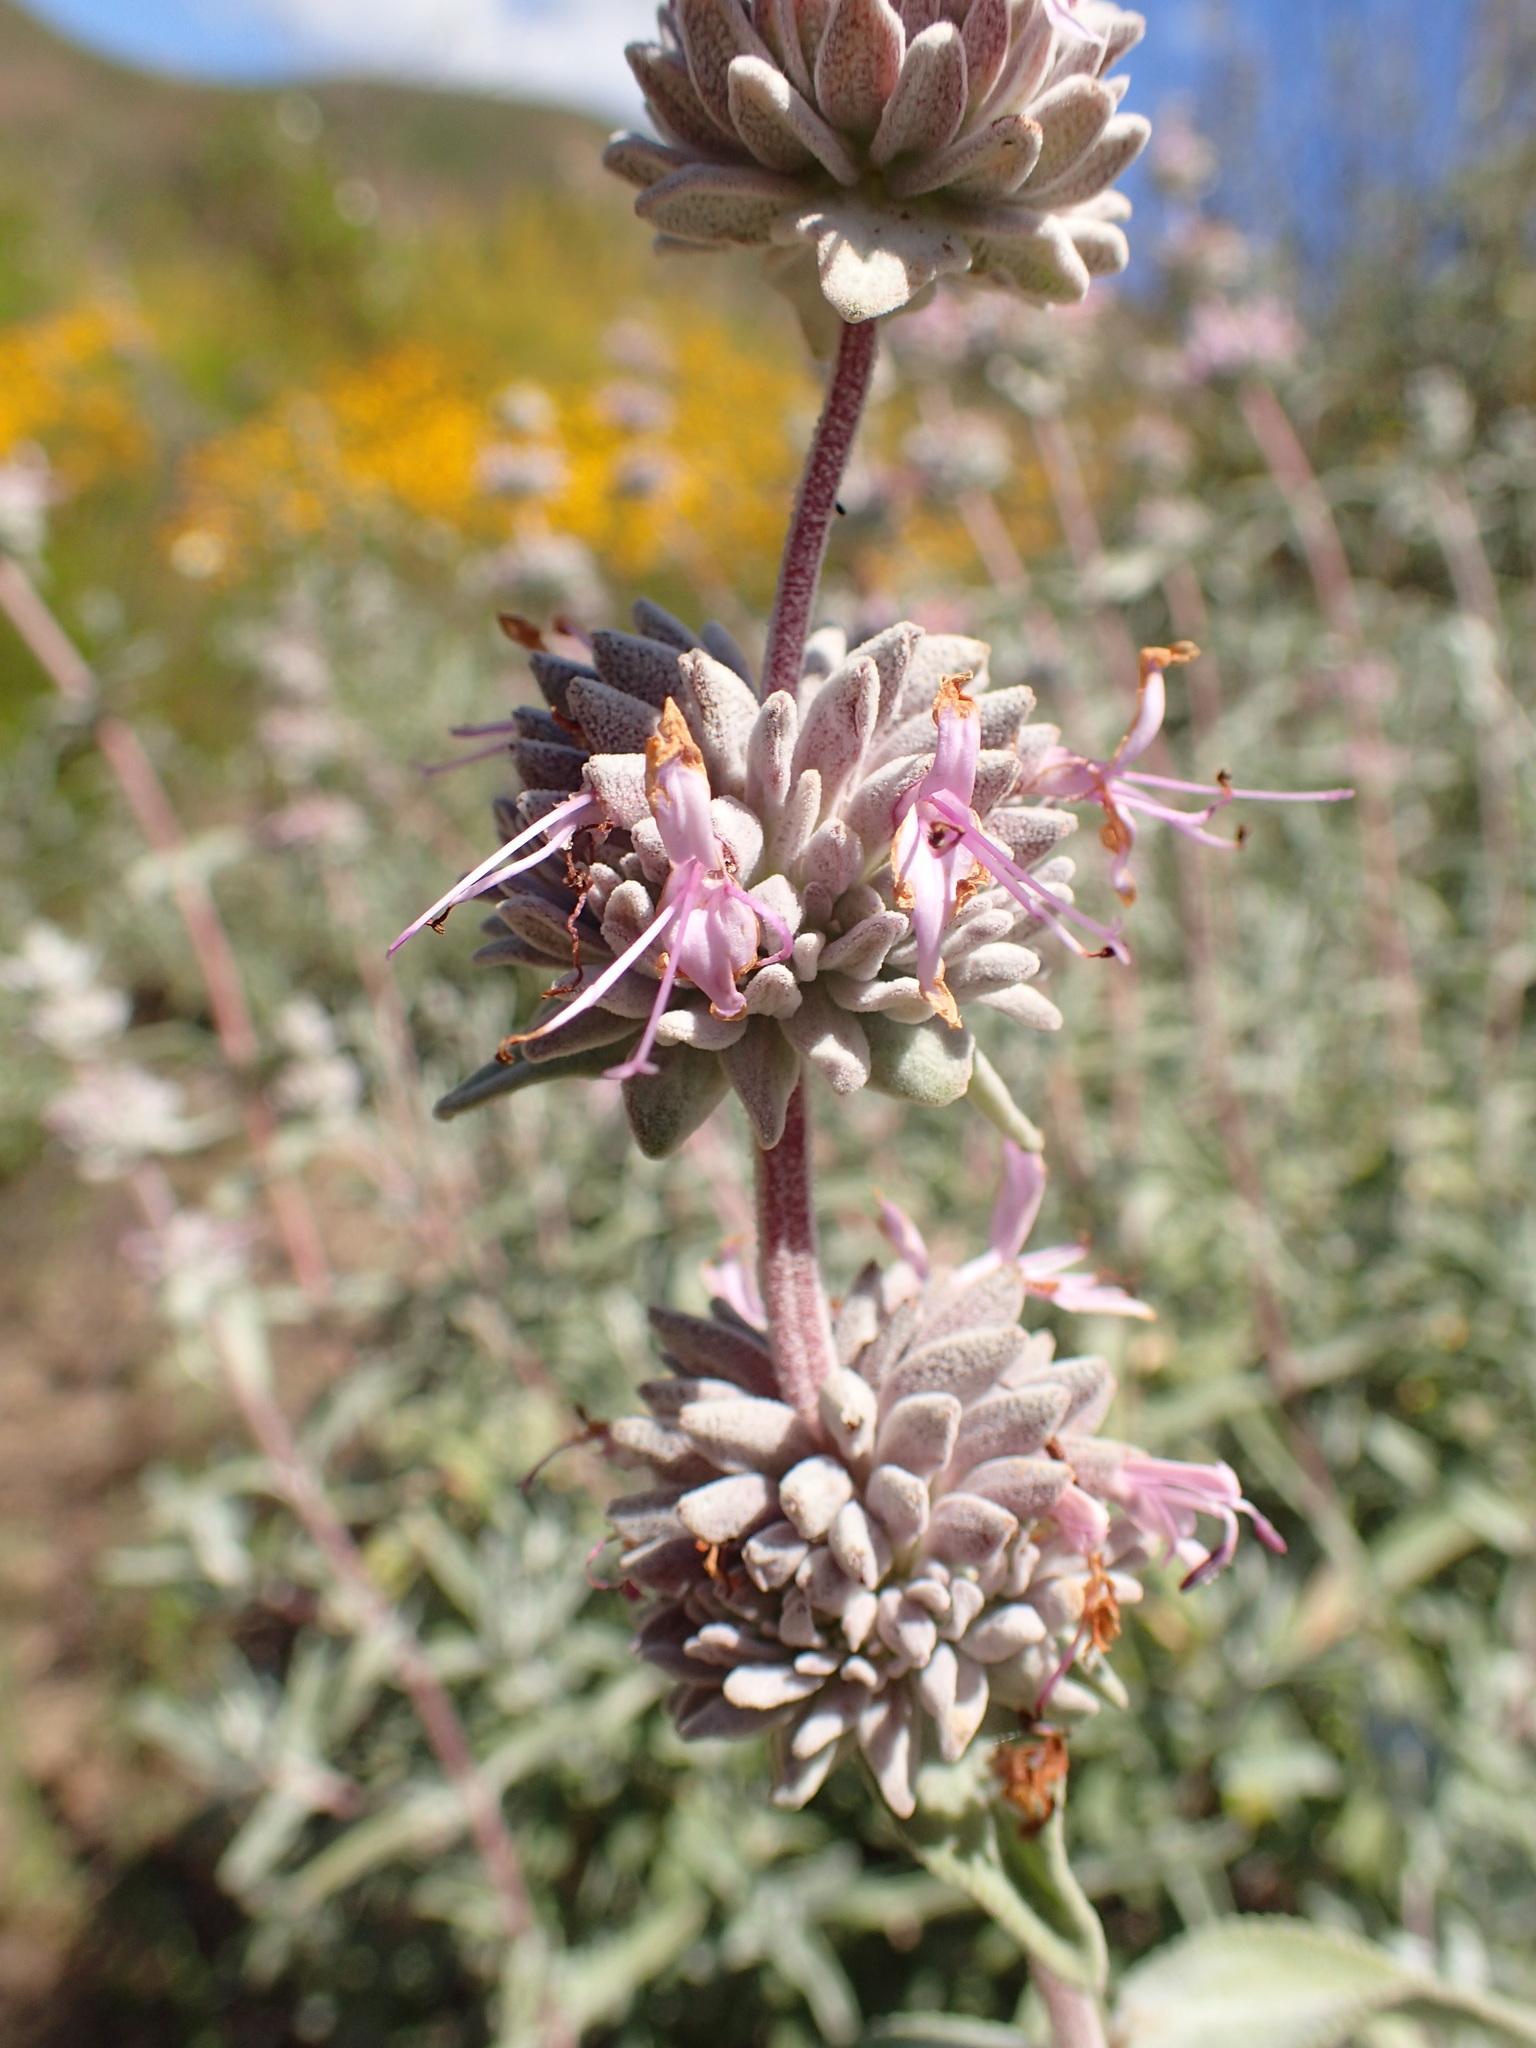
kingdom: Plantae
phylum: Tracheophyta
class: Magnoliopsida
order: Lamiales
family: Lamiaceae
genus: Salvia
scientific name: Salvia leucophylla
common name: Purple sage
